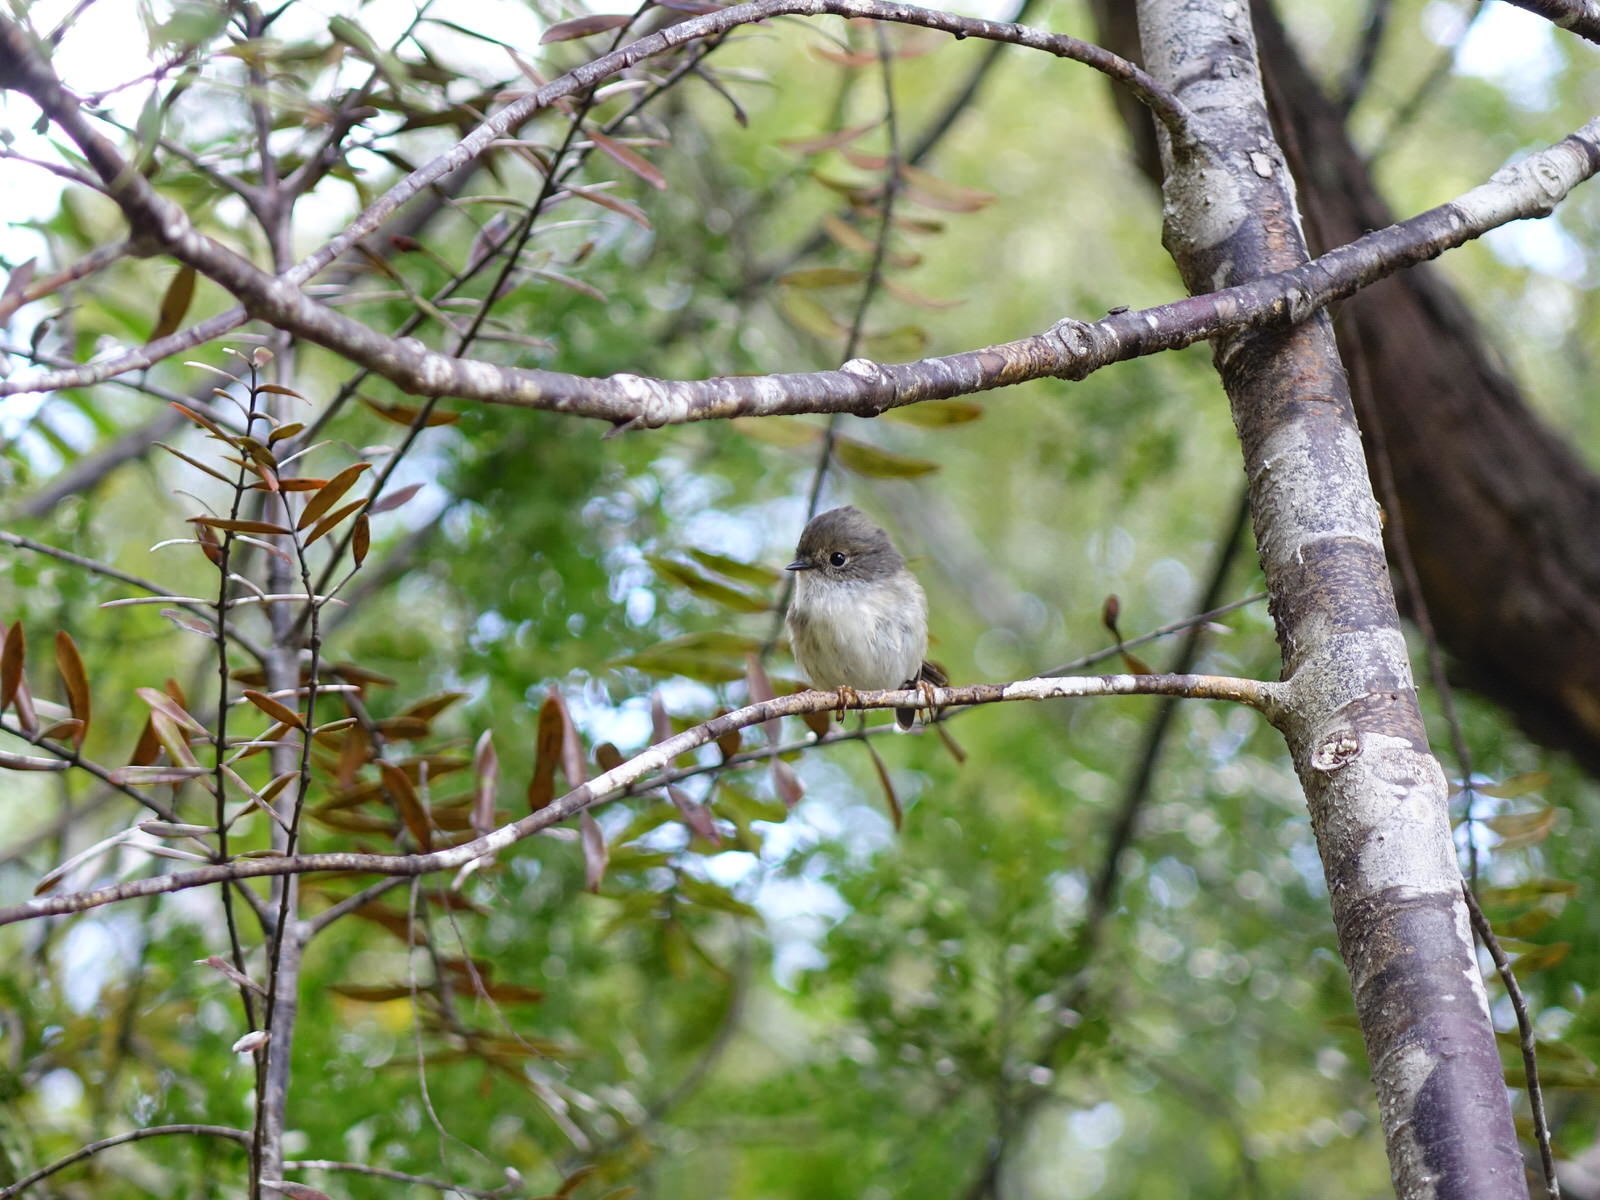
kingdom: Animalia
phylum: Chordata
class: Aves
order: Passeriformes
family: Petroicidae
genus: Petroica
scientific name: Petroica macrocephala
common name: Tomtit
